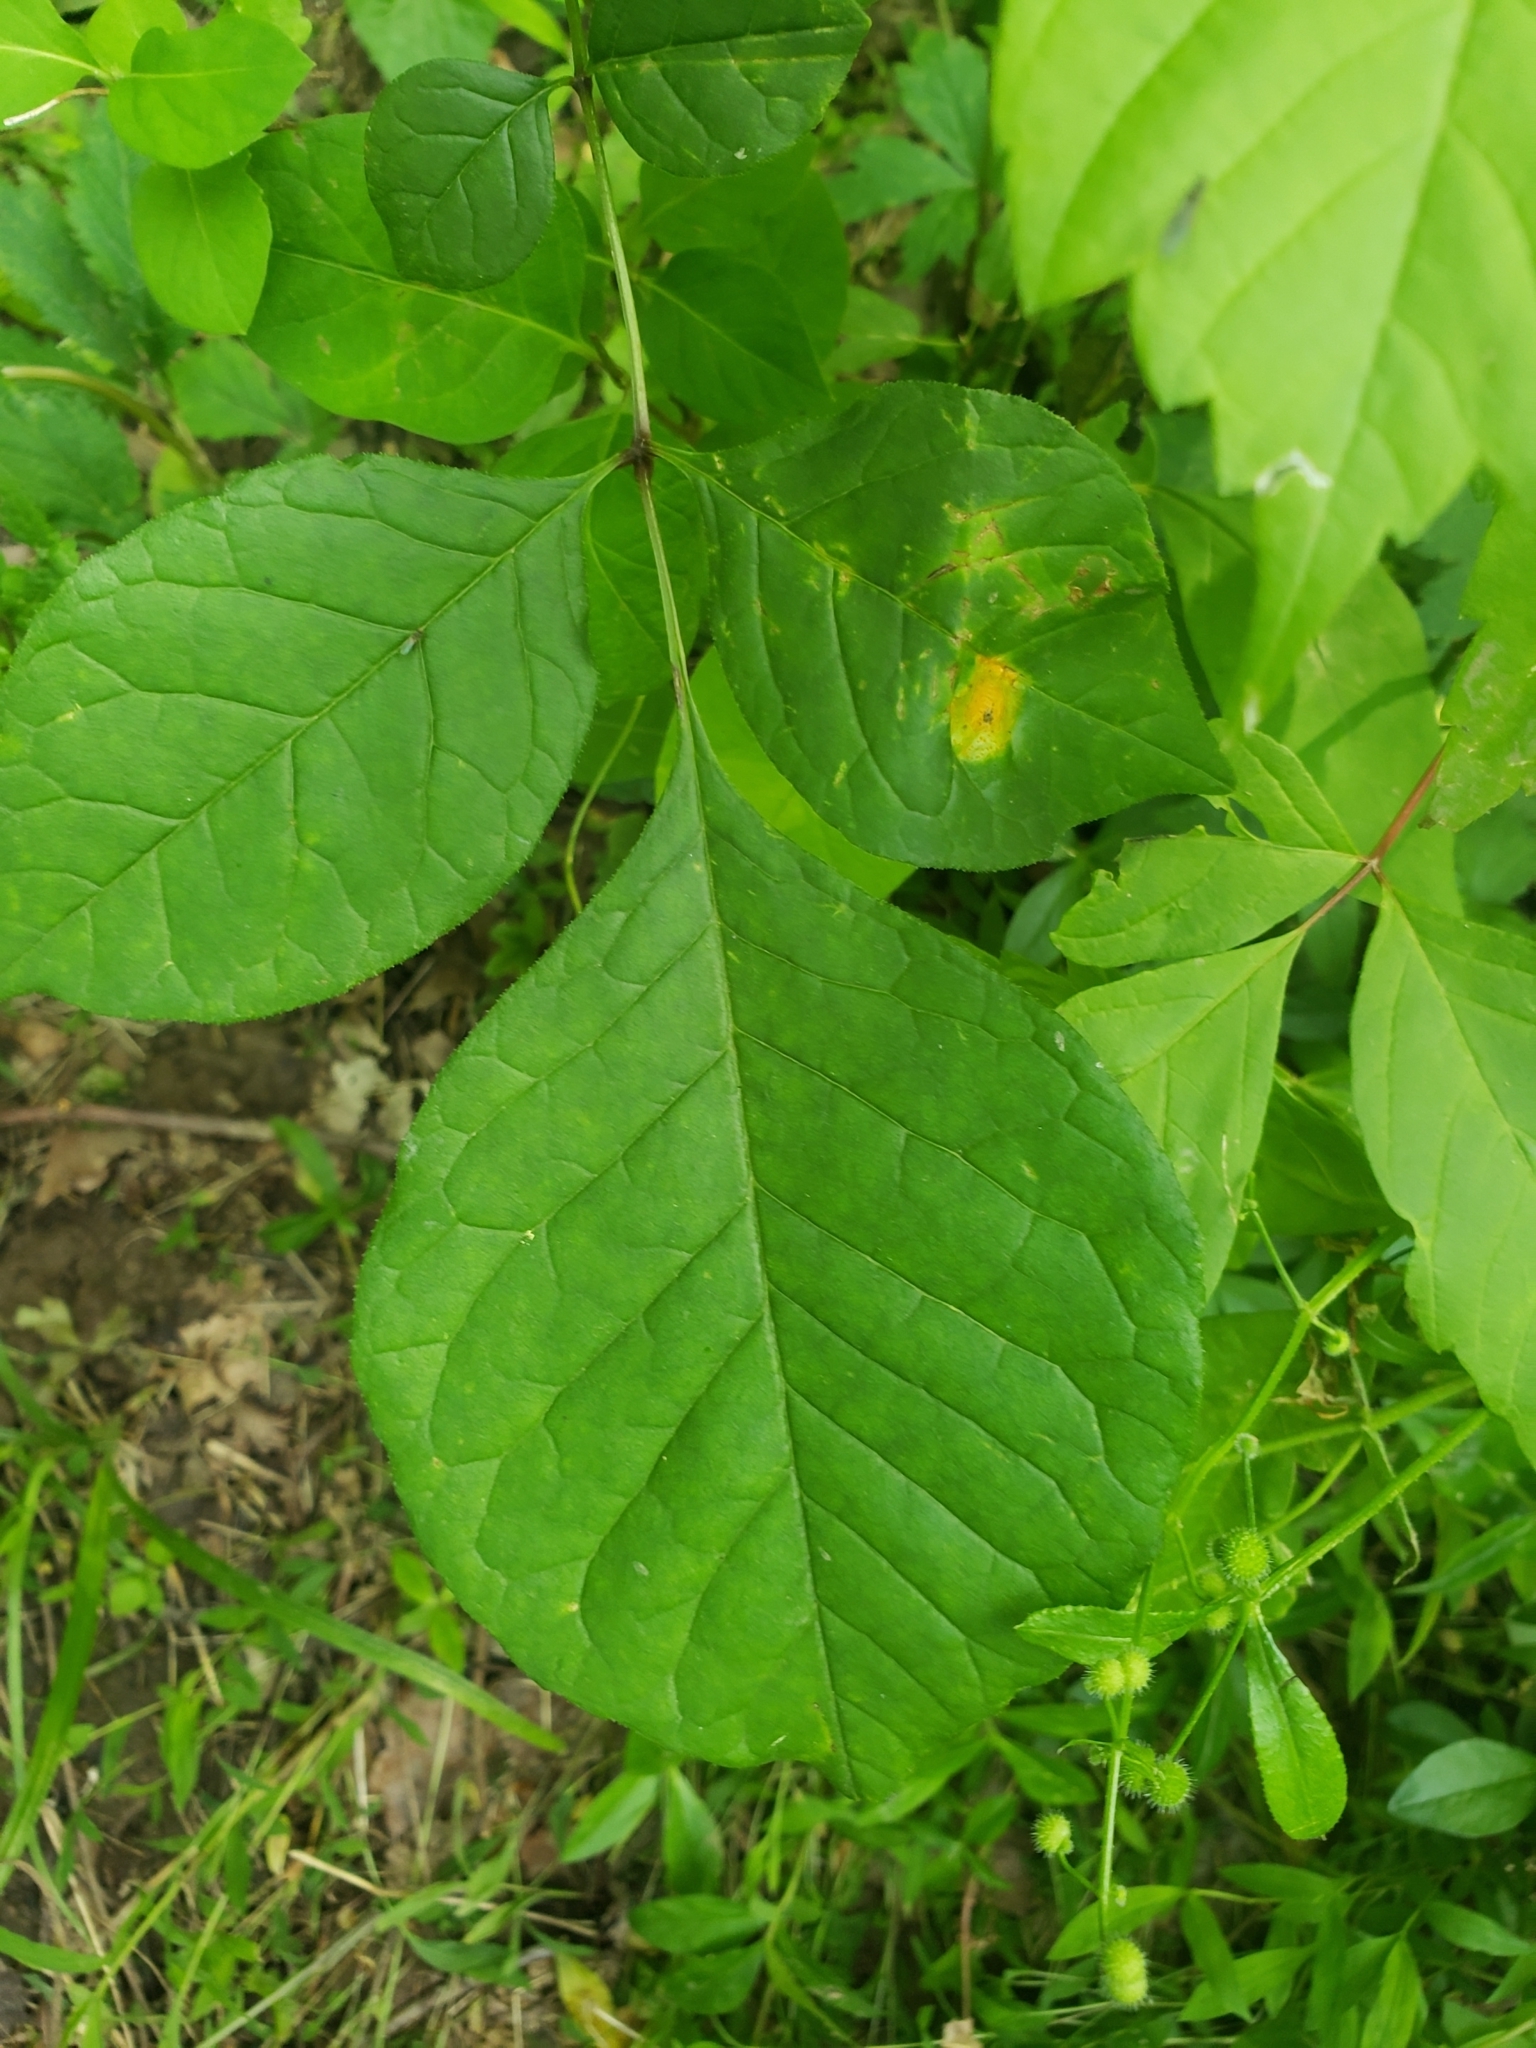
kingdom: Fungi
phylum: Basidiomycota
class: Pucciniomycetes
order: Pucciniales
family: Pucciniaceae
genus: Puccinia
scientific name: Puccinia sparganioidis
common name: Ash rust
